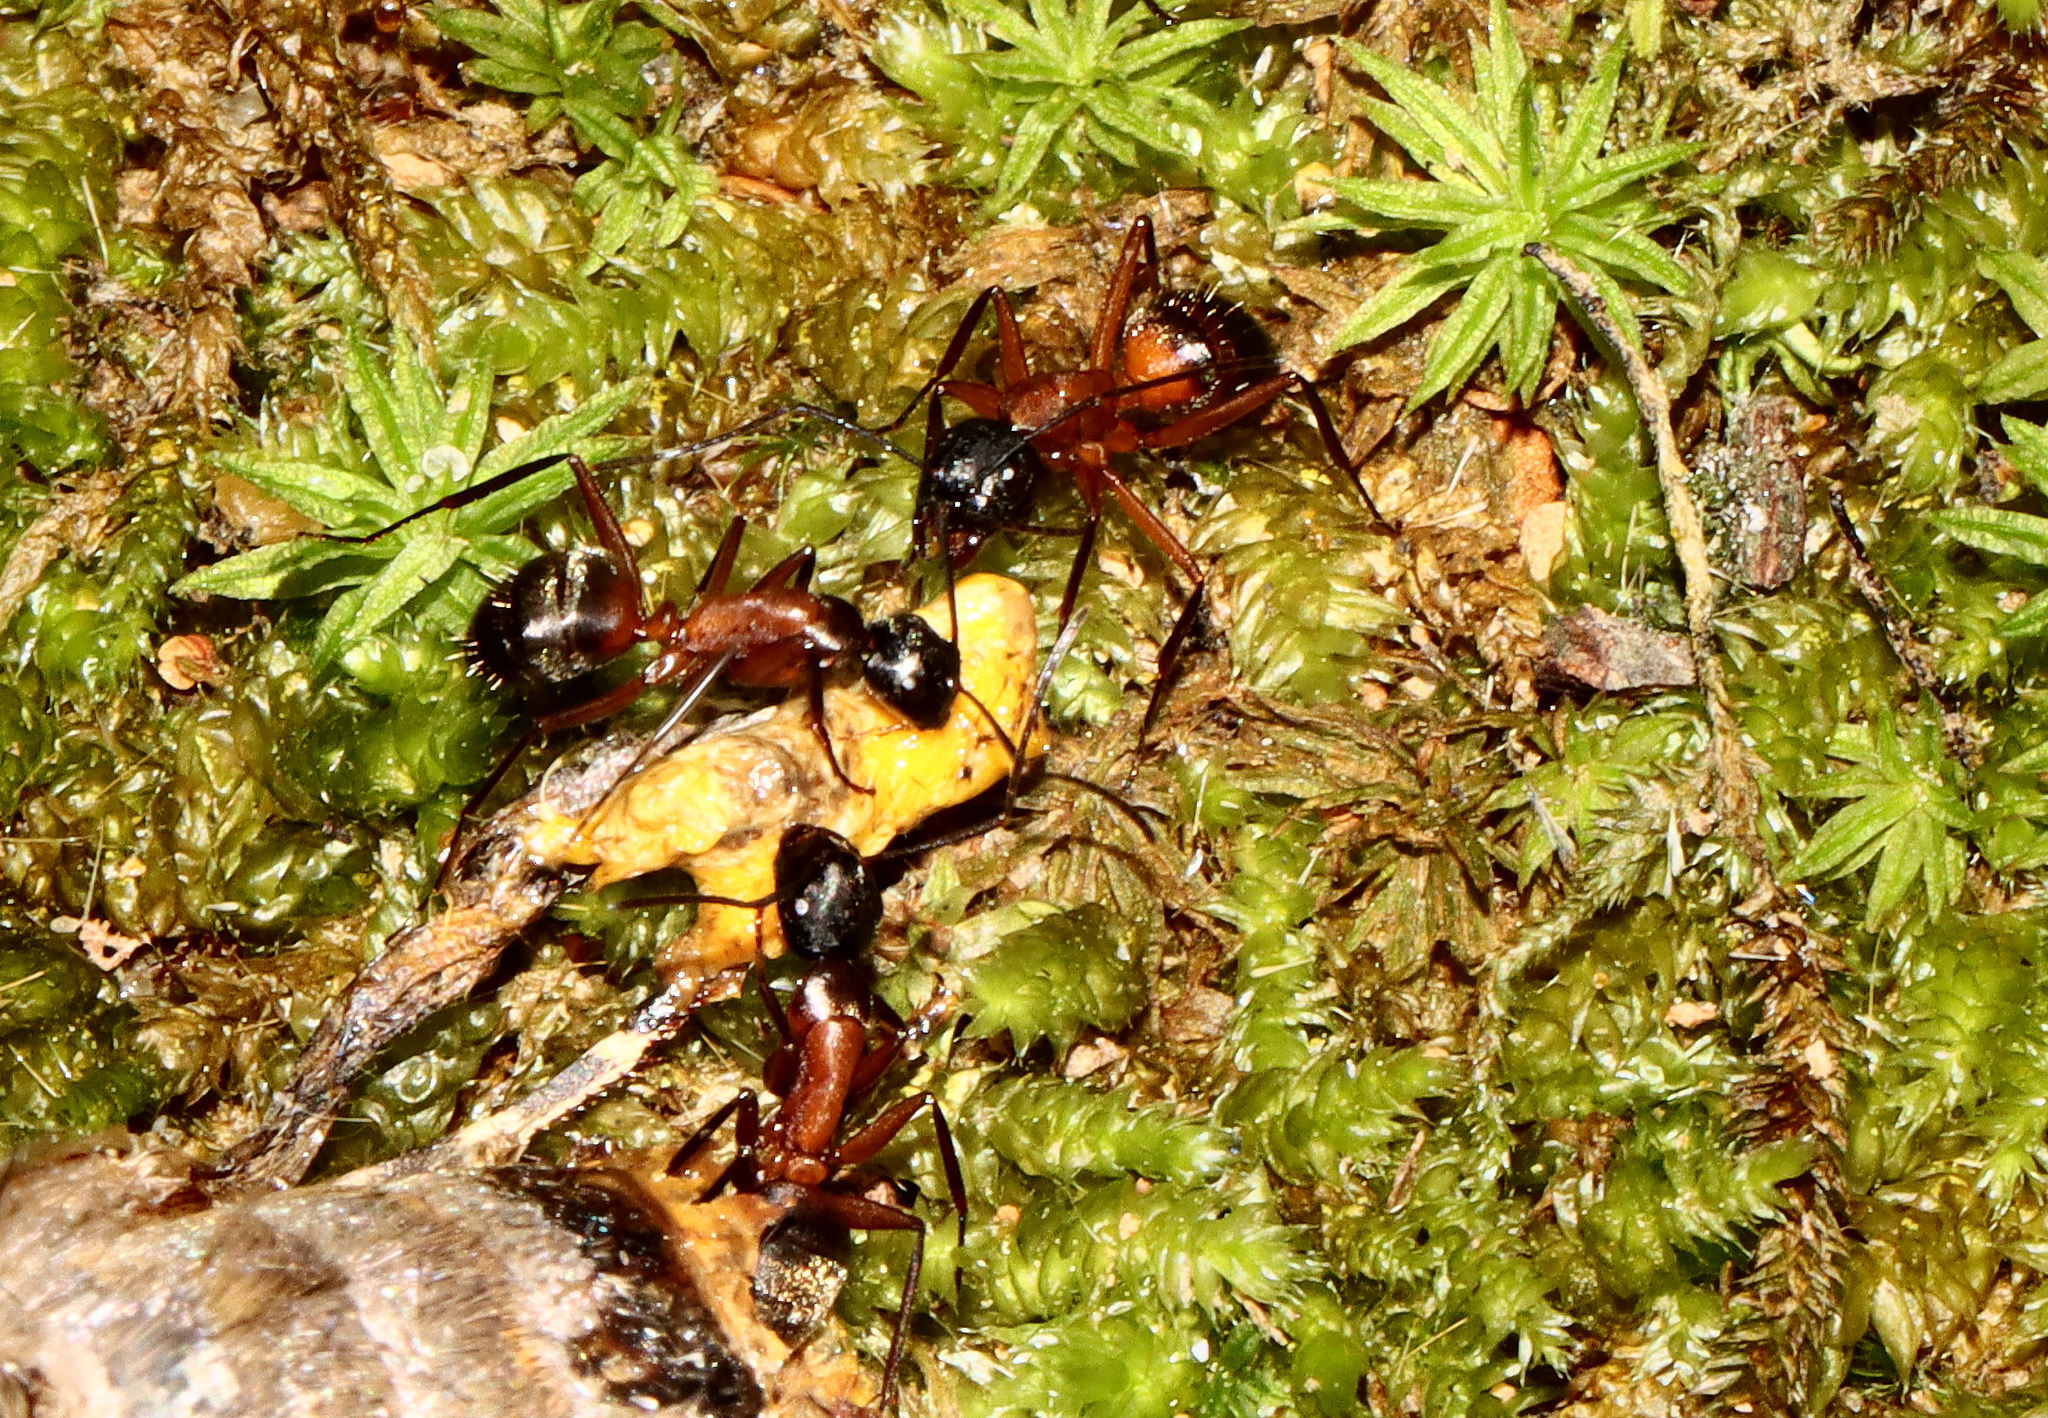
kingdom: Animalia
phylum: Arthropoda
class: Insecta
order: Hymenoptera
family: Formicidae
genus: Camponotus
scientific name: Camponotus chromaiodes
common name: Red carpenter ant
